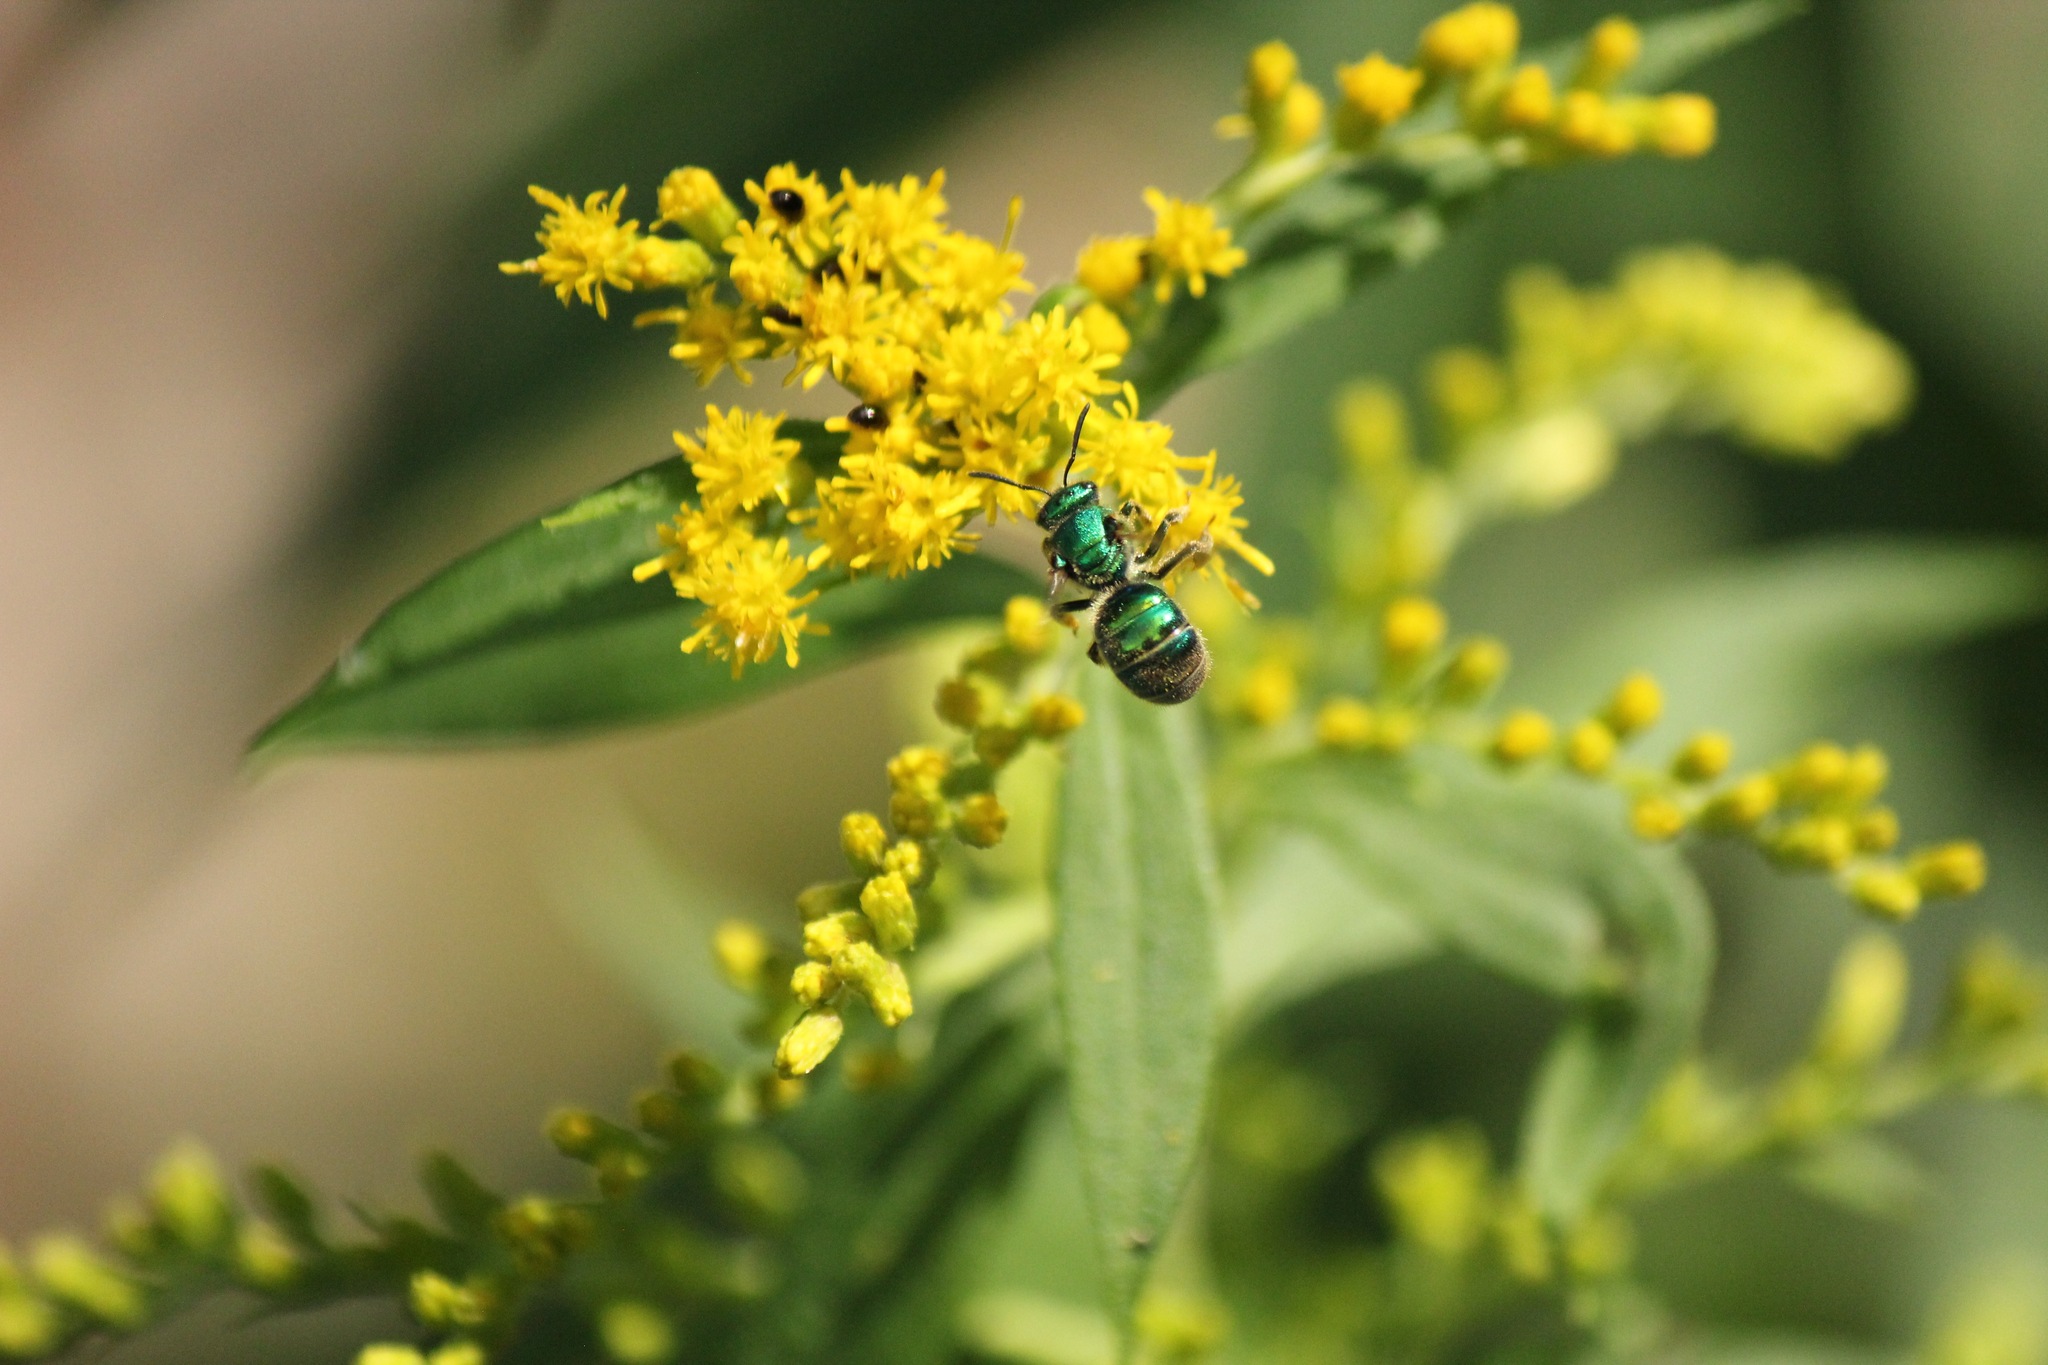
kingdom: Animalia
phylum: Arthropoda
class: Insecta
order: Hymenoptera
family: Halictidae
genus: Augochloropsis
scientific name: Augochloropsis viridula
